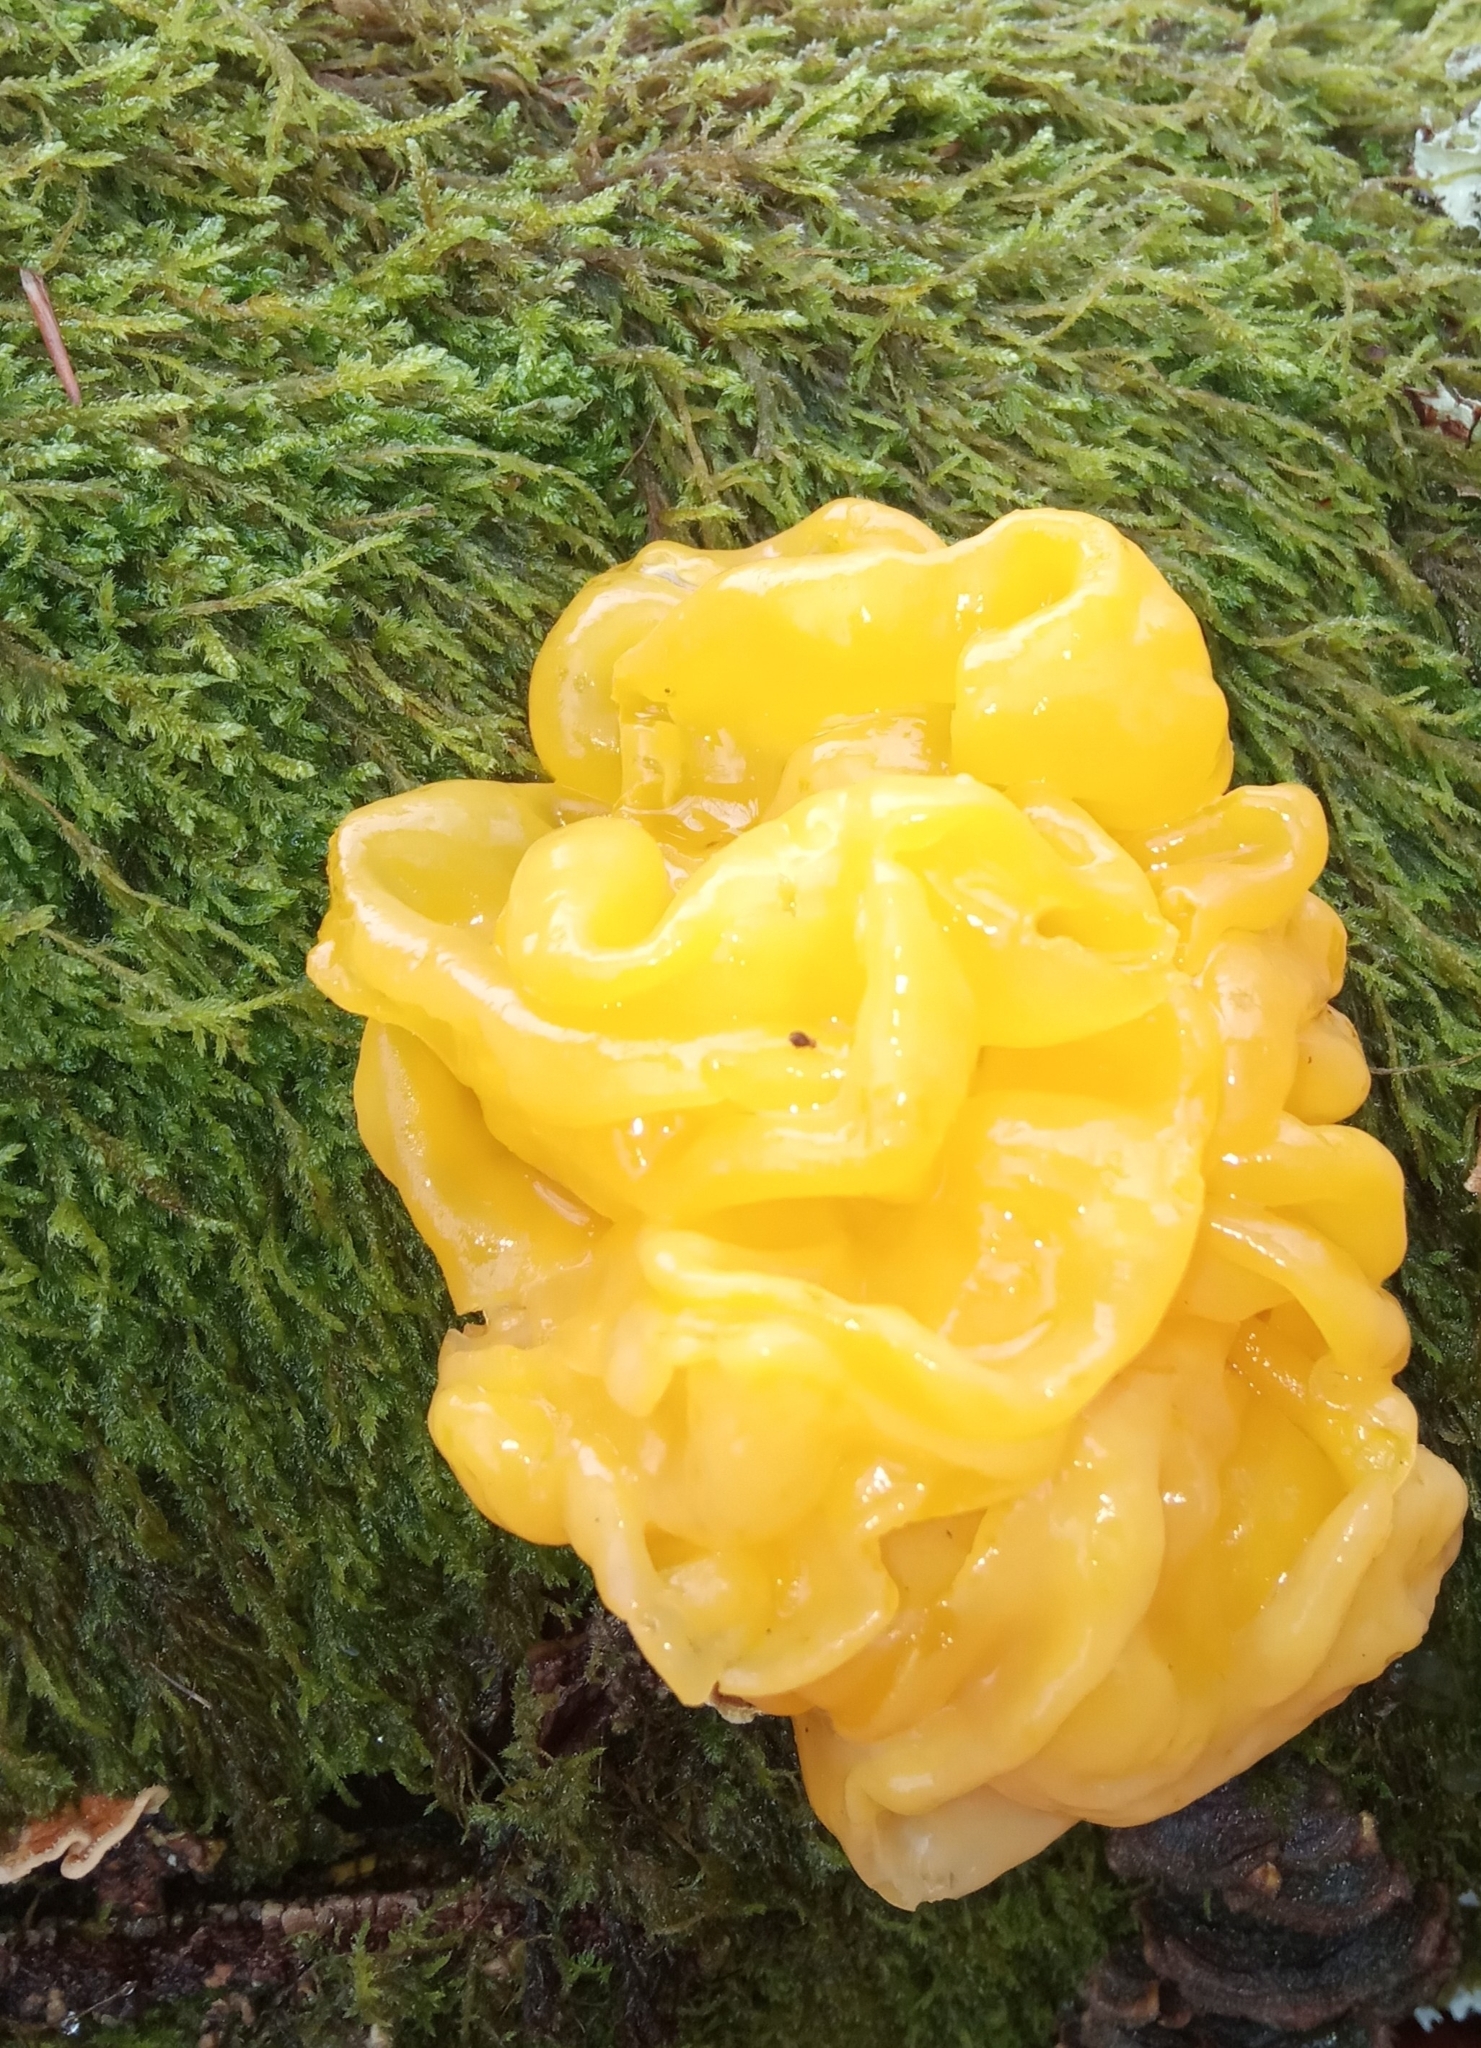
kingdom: Fungi
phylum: Basidiomycota
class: Tremellomycetes
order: Tremellales
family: Naemateliaceae
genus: Naematelia
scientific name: Naematelia aurantia
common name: Golden ear
